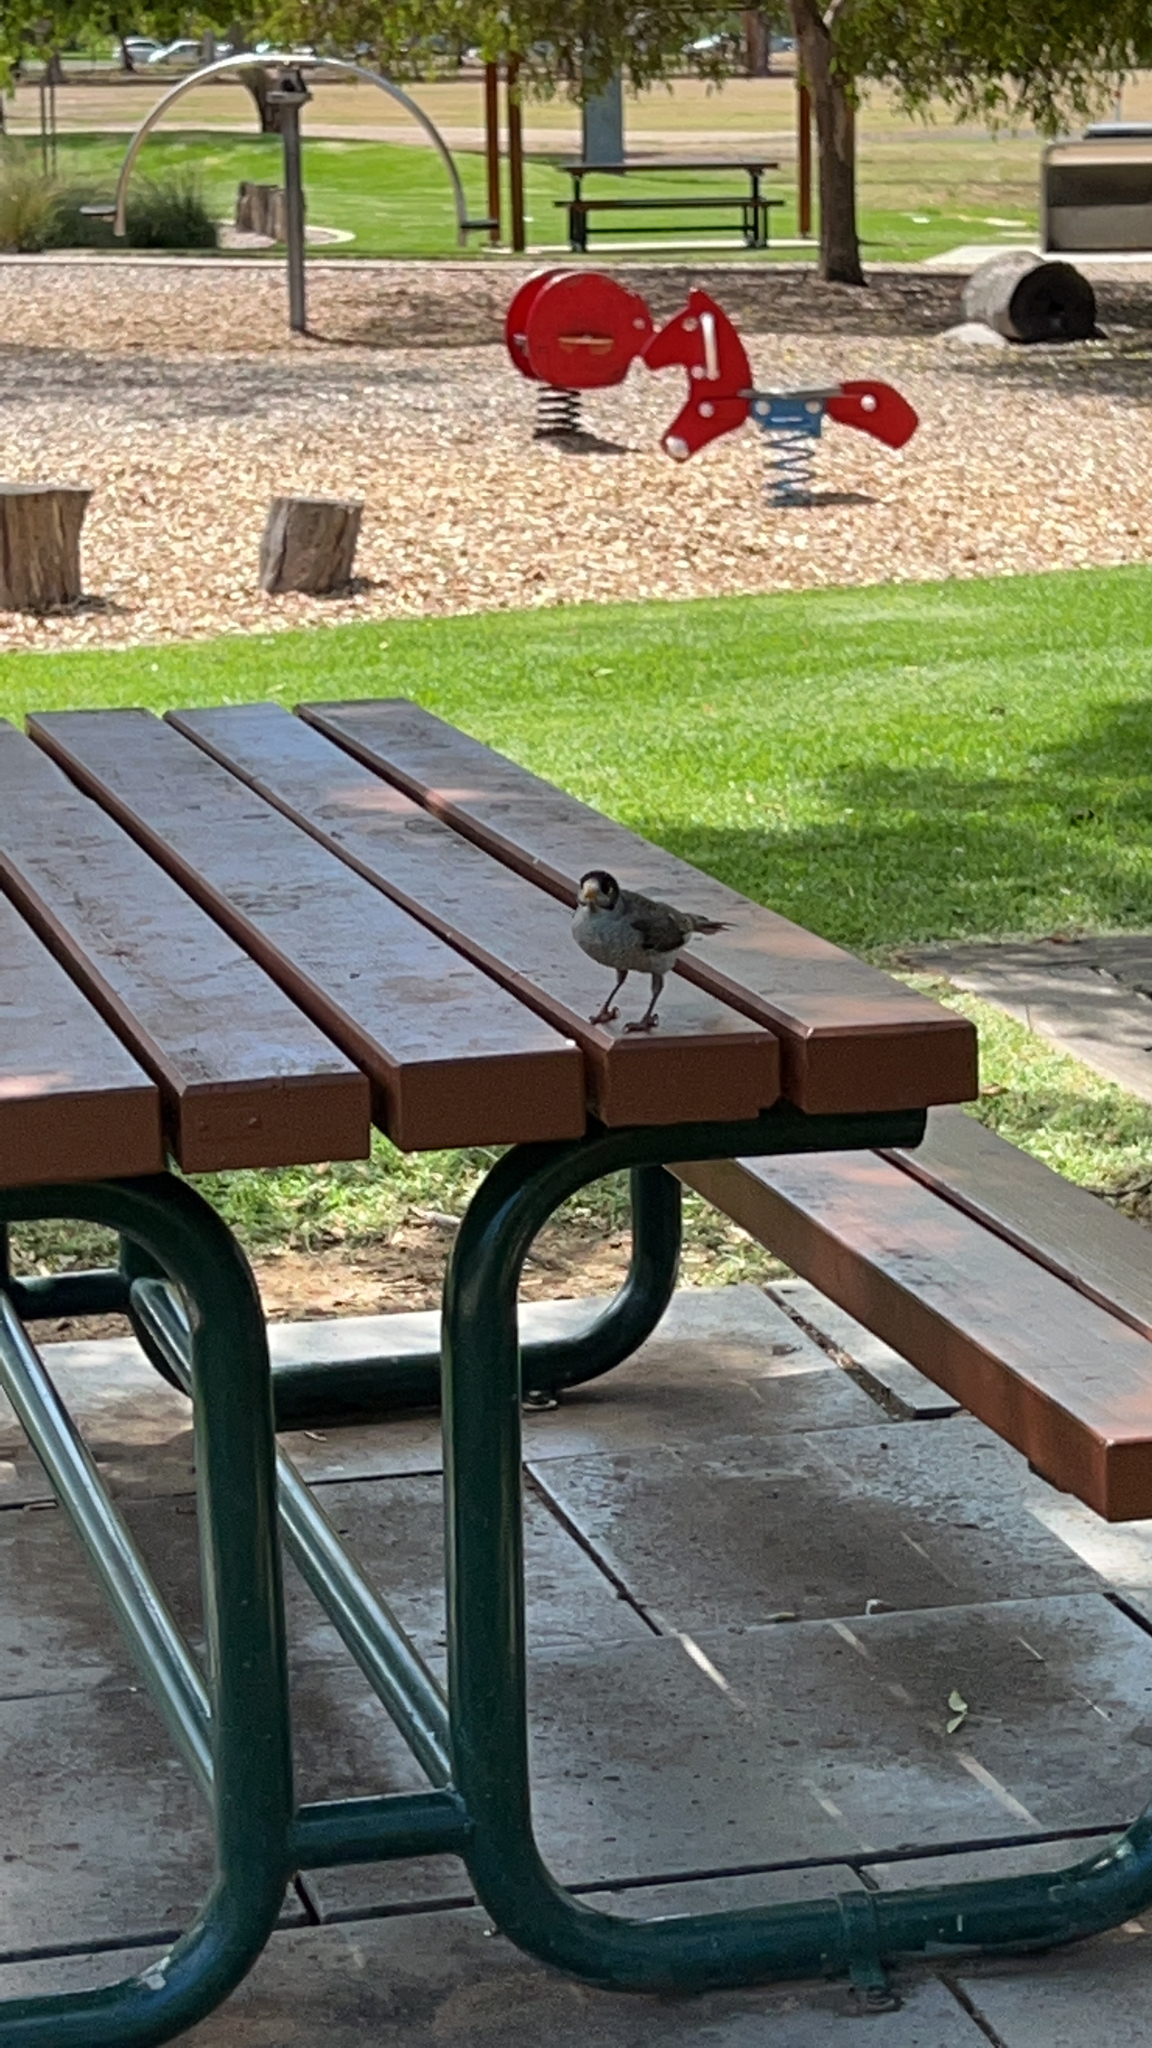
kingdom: Animalia
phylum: Chordata
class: Aves
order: Passeriformes
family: Meliphagidae
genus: Manorina
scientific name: Manorina melanocephala
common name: Noisy miner
